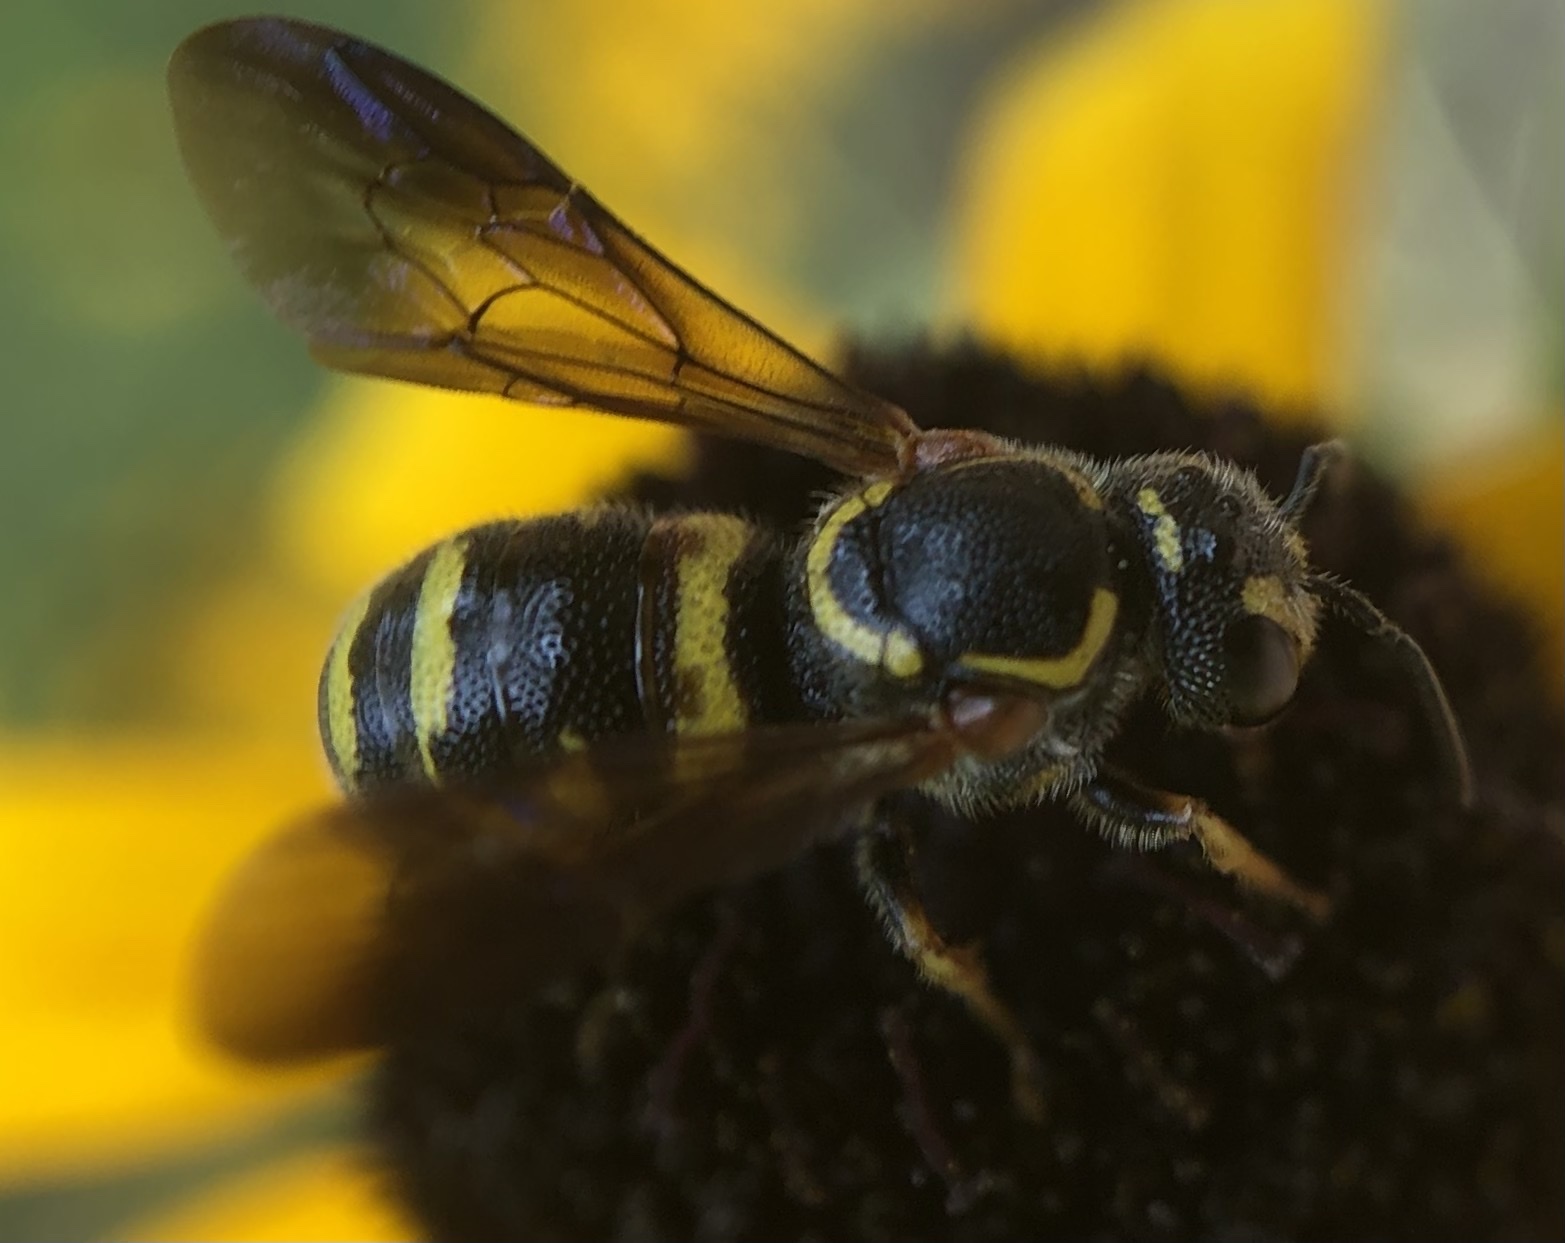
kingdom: Animalia
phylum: Arthropoda
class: Insecta
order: Hymenoptera
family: Megachilidae
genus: Stelis
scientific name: Stelis louisae
